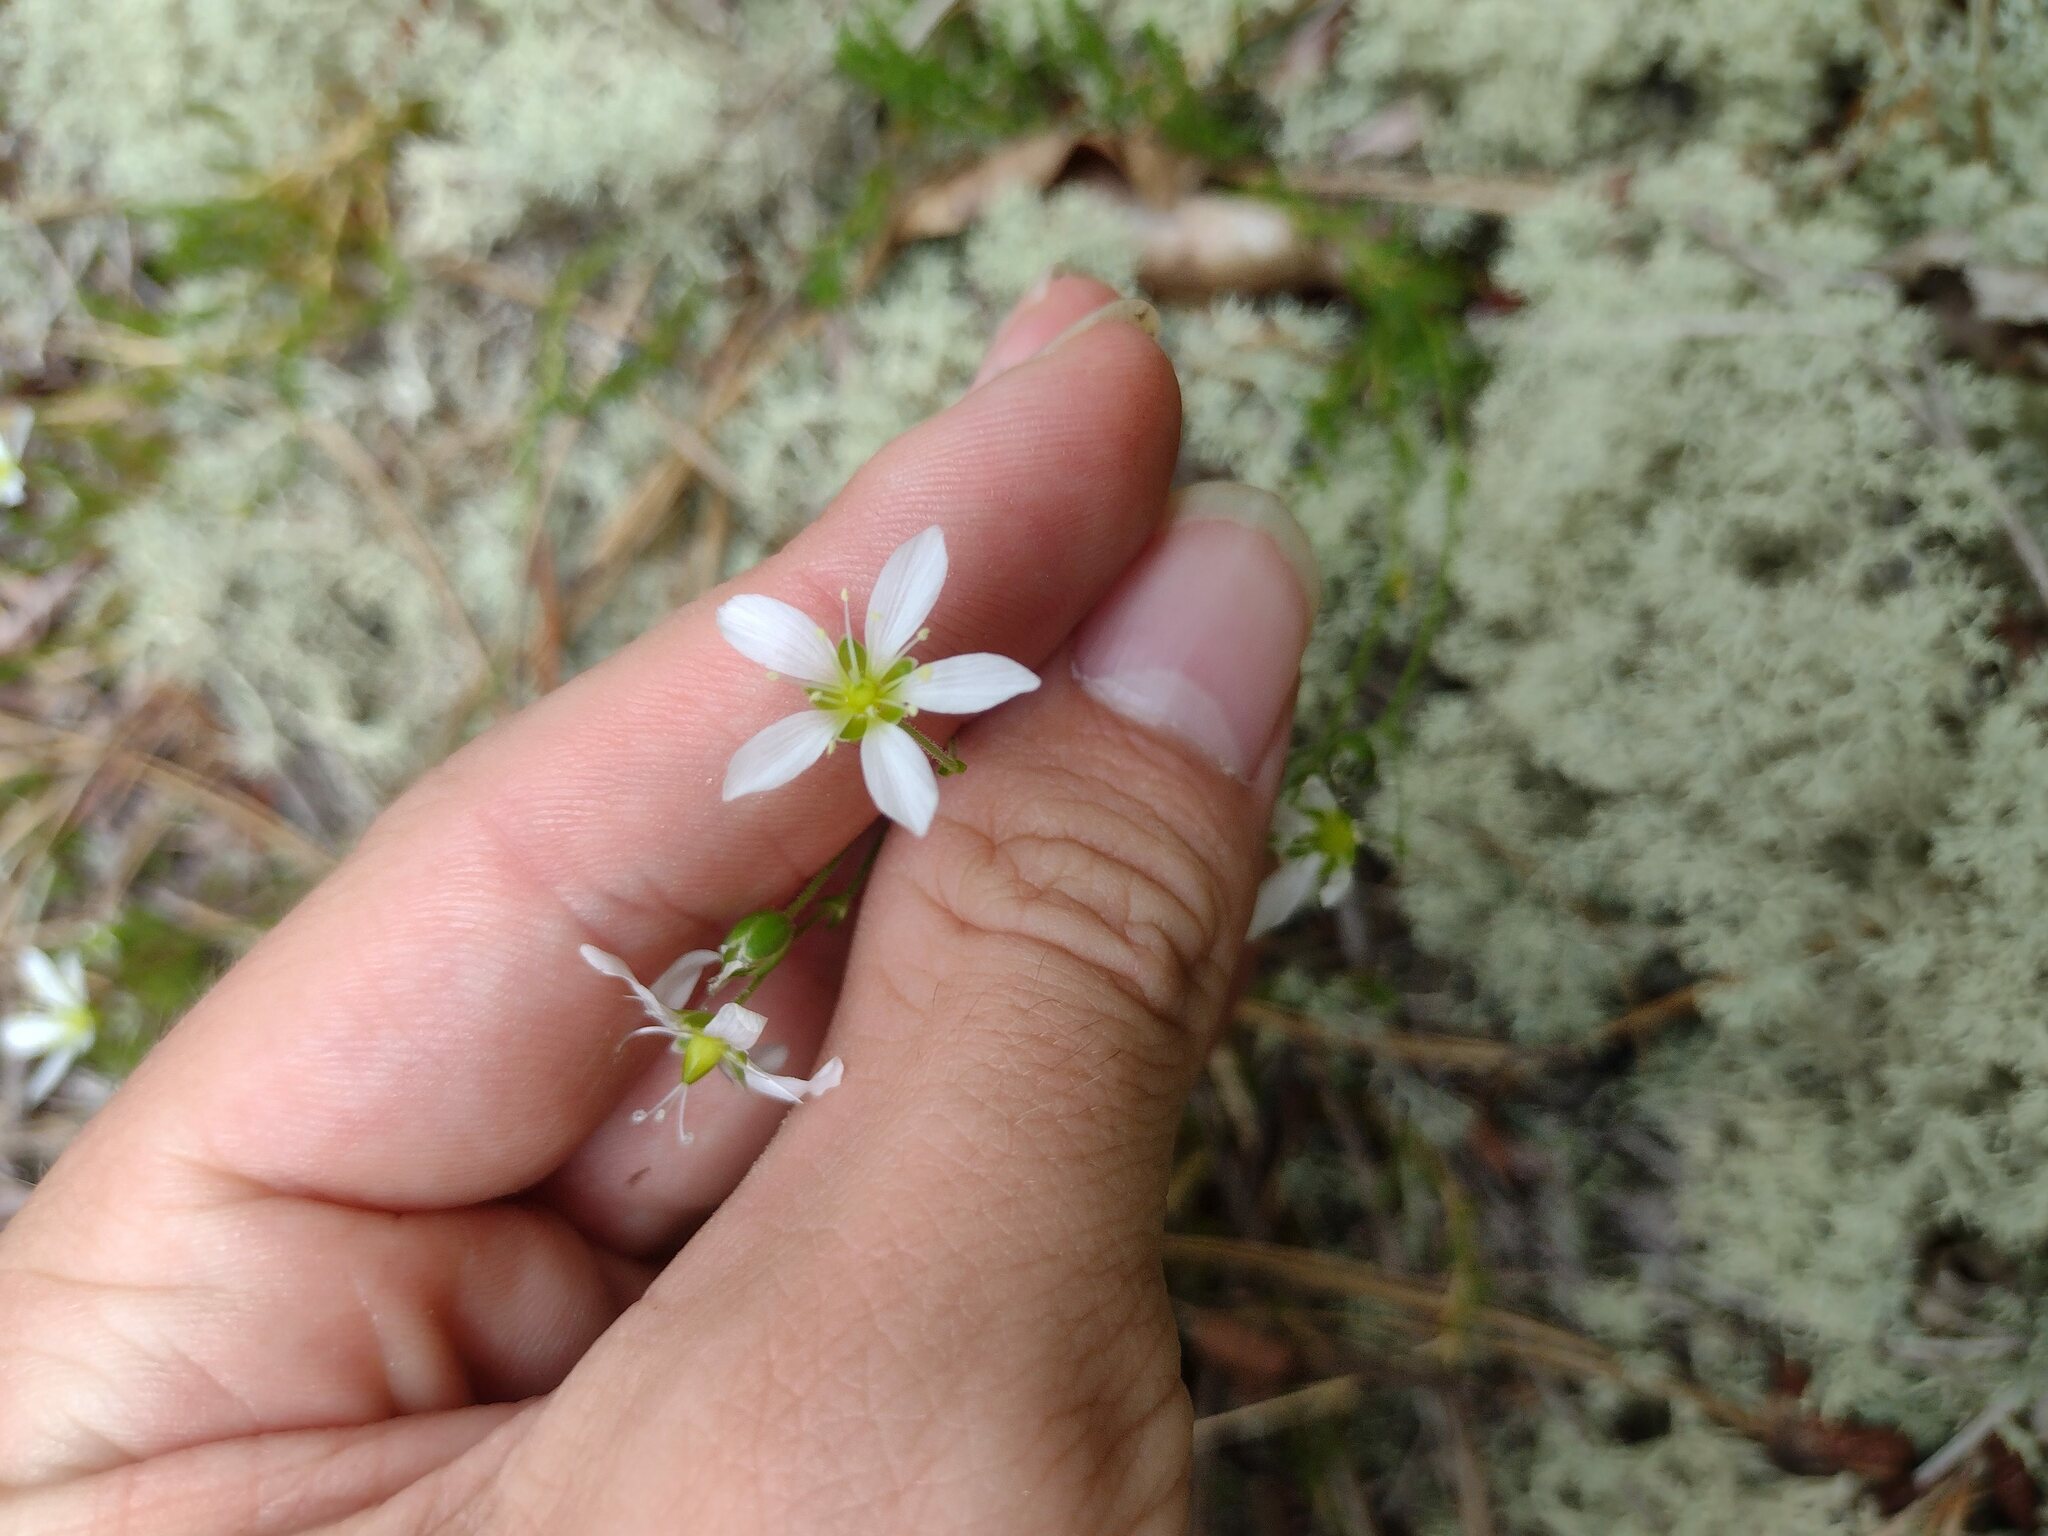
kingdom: Plantae
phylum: Tracheophyta
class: Magnoliopsida
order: Caryophyllales
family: Caryophyllaceae
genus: Geocarpon
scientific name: Geocarpon carolinianum
